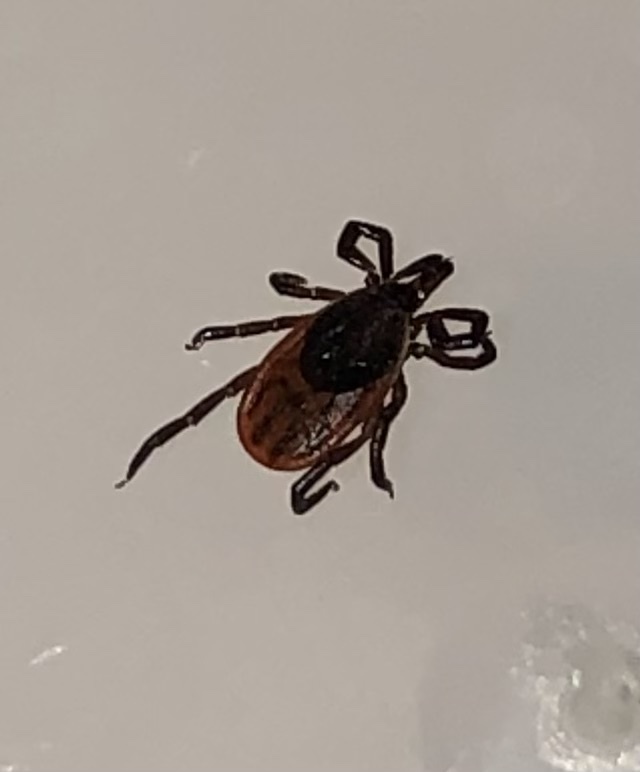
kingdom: Animalia
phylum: Arthropoda
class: Arachnida
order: Ixodida
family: Ixodidae
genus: Ixodes
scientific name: Ixodes scapularis
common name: Black legged tick
